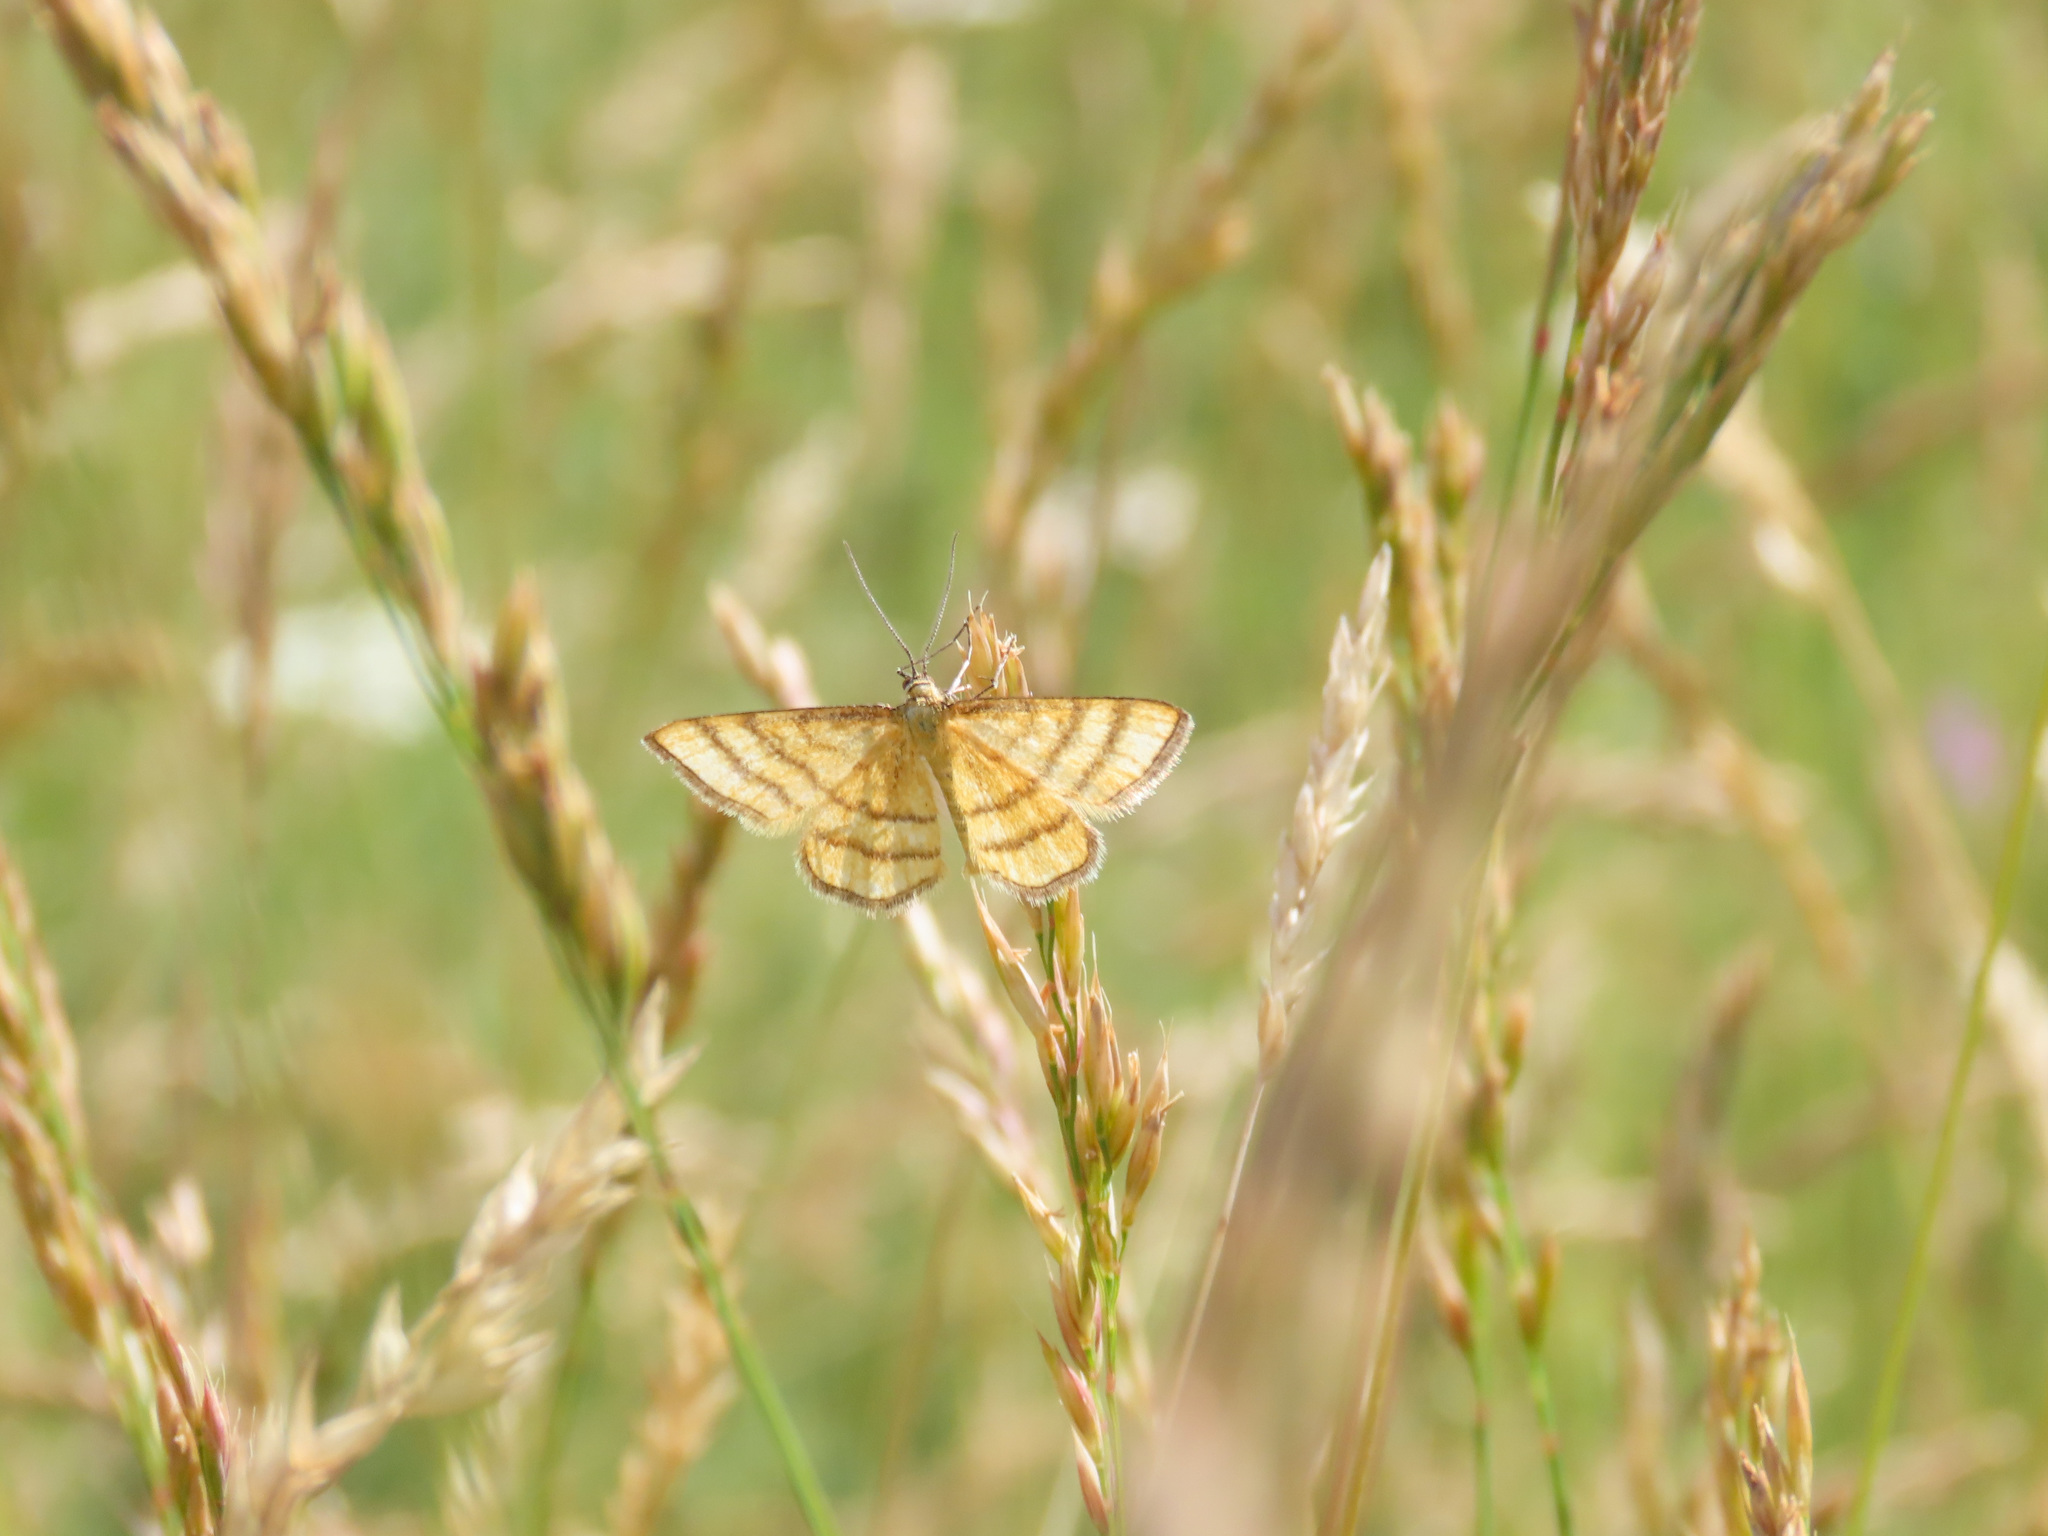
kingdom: Animalia
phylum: Arthropoda
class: Insecta
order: Lepidoptera
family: Geometridae
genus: Idaea
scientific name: Idaea aureolaria
